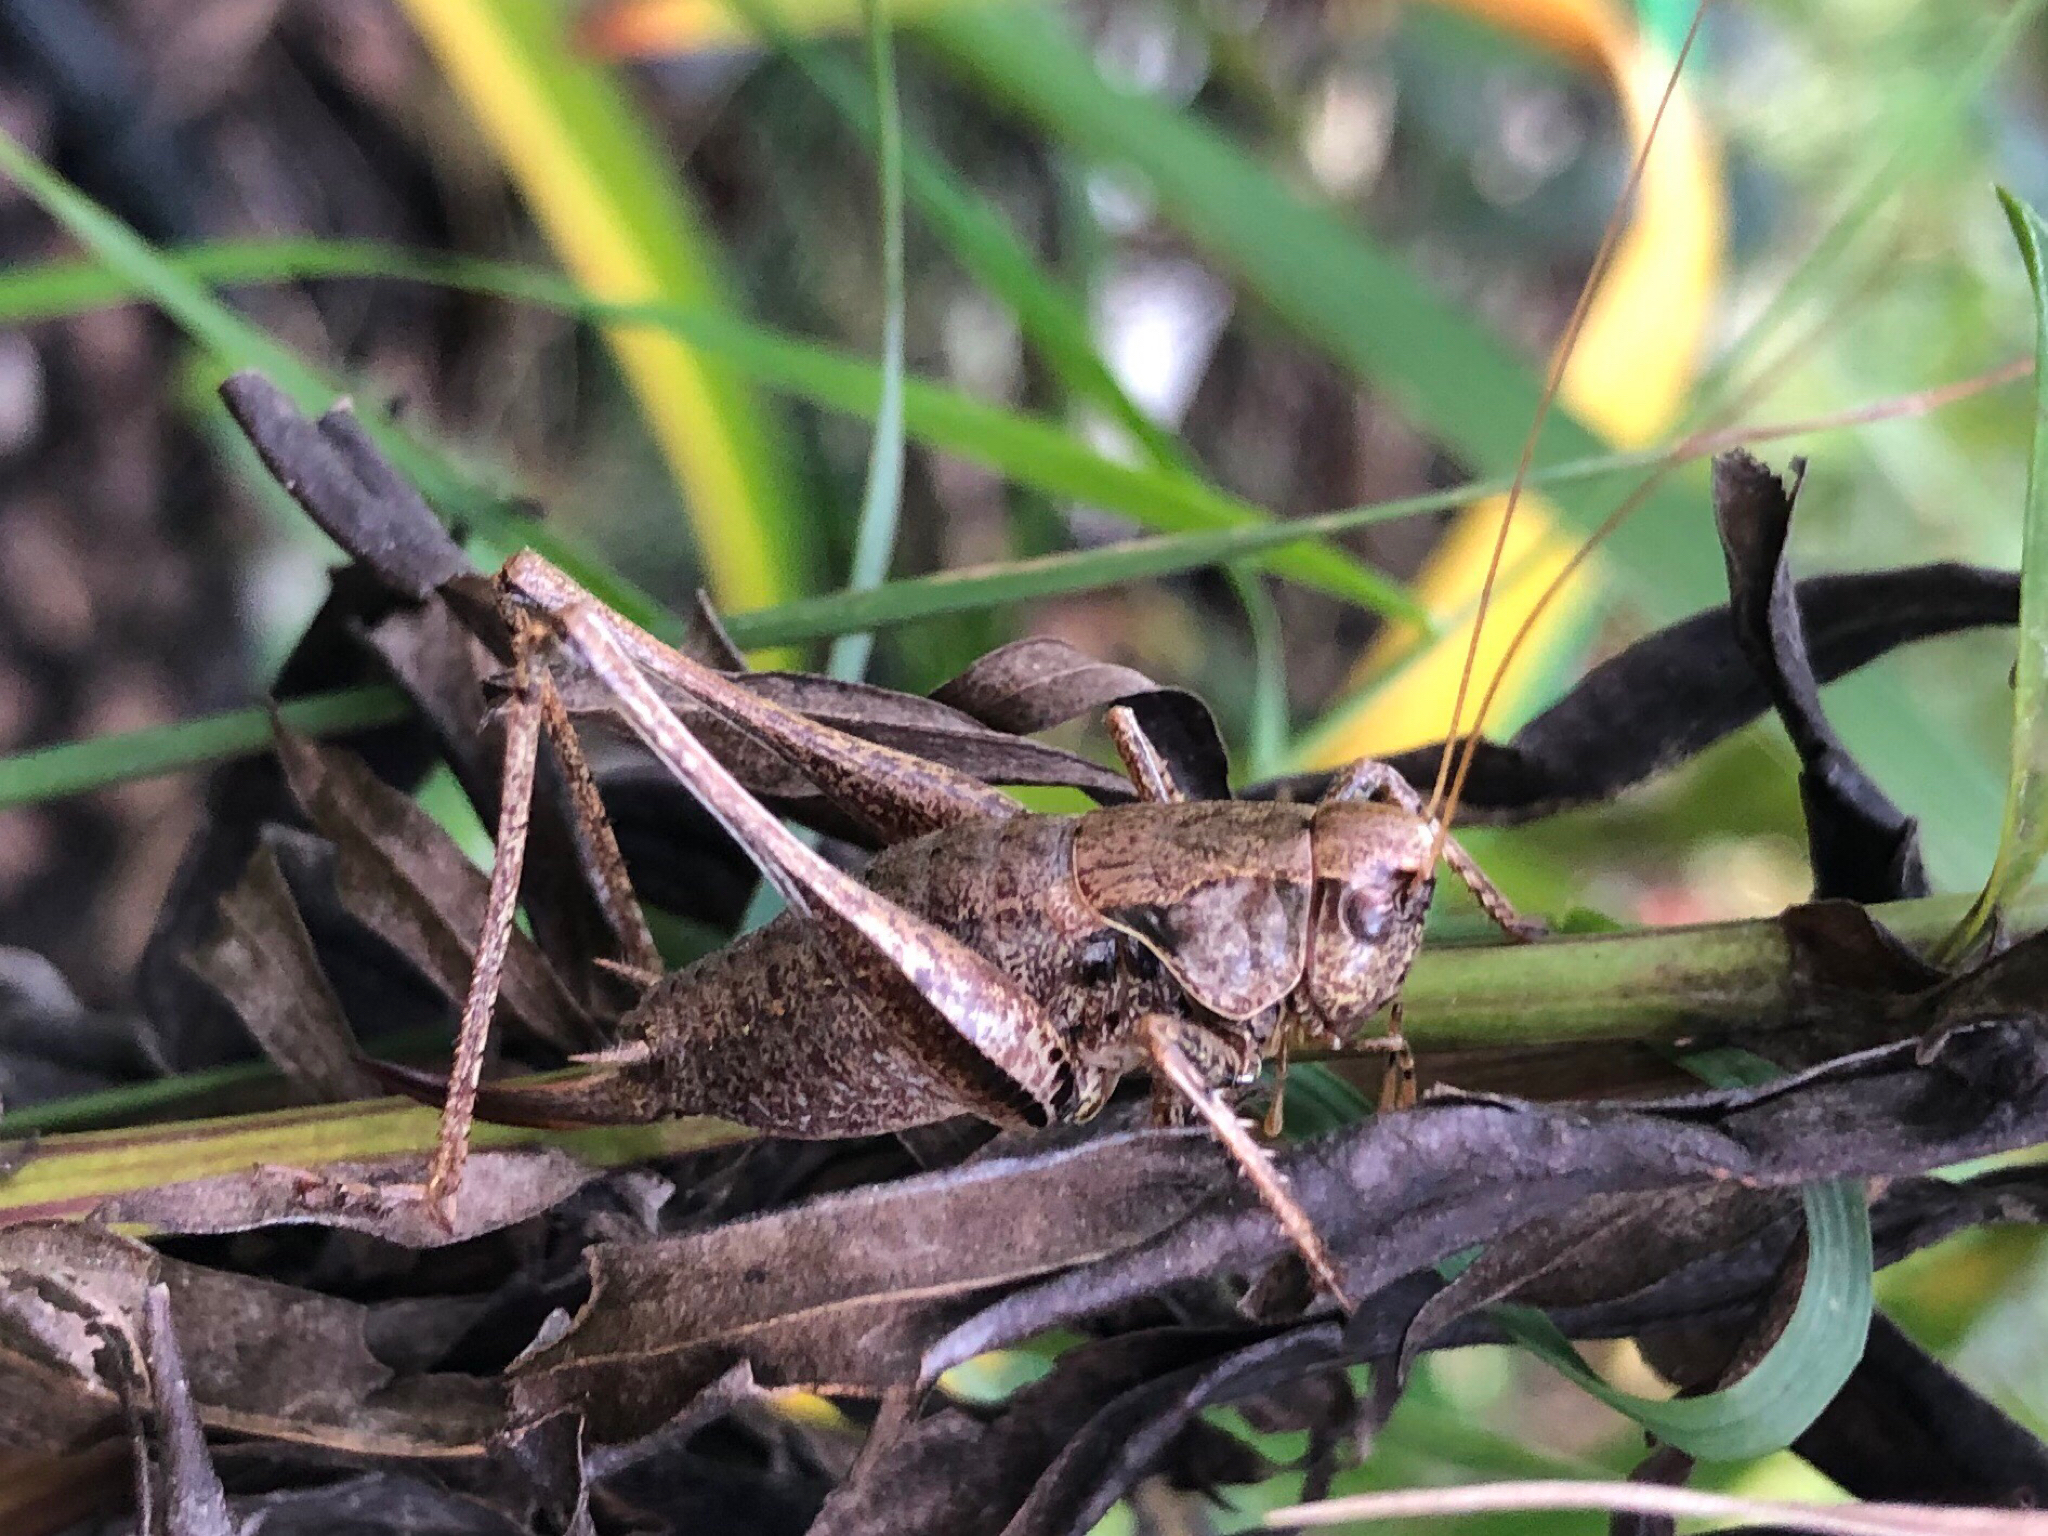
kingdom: Animalia
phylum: Arthropoda
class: Insecta
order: Orthoptera
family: Tettigoniidae
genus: Pholidoptera
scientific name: Pholidoptera griseoaptera
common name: Dark bush-cricket
